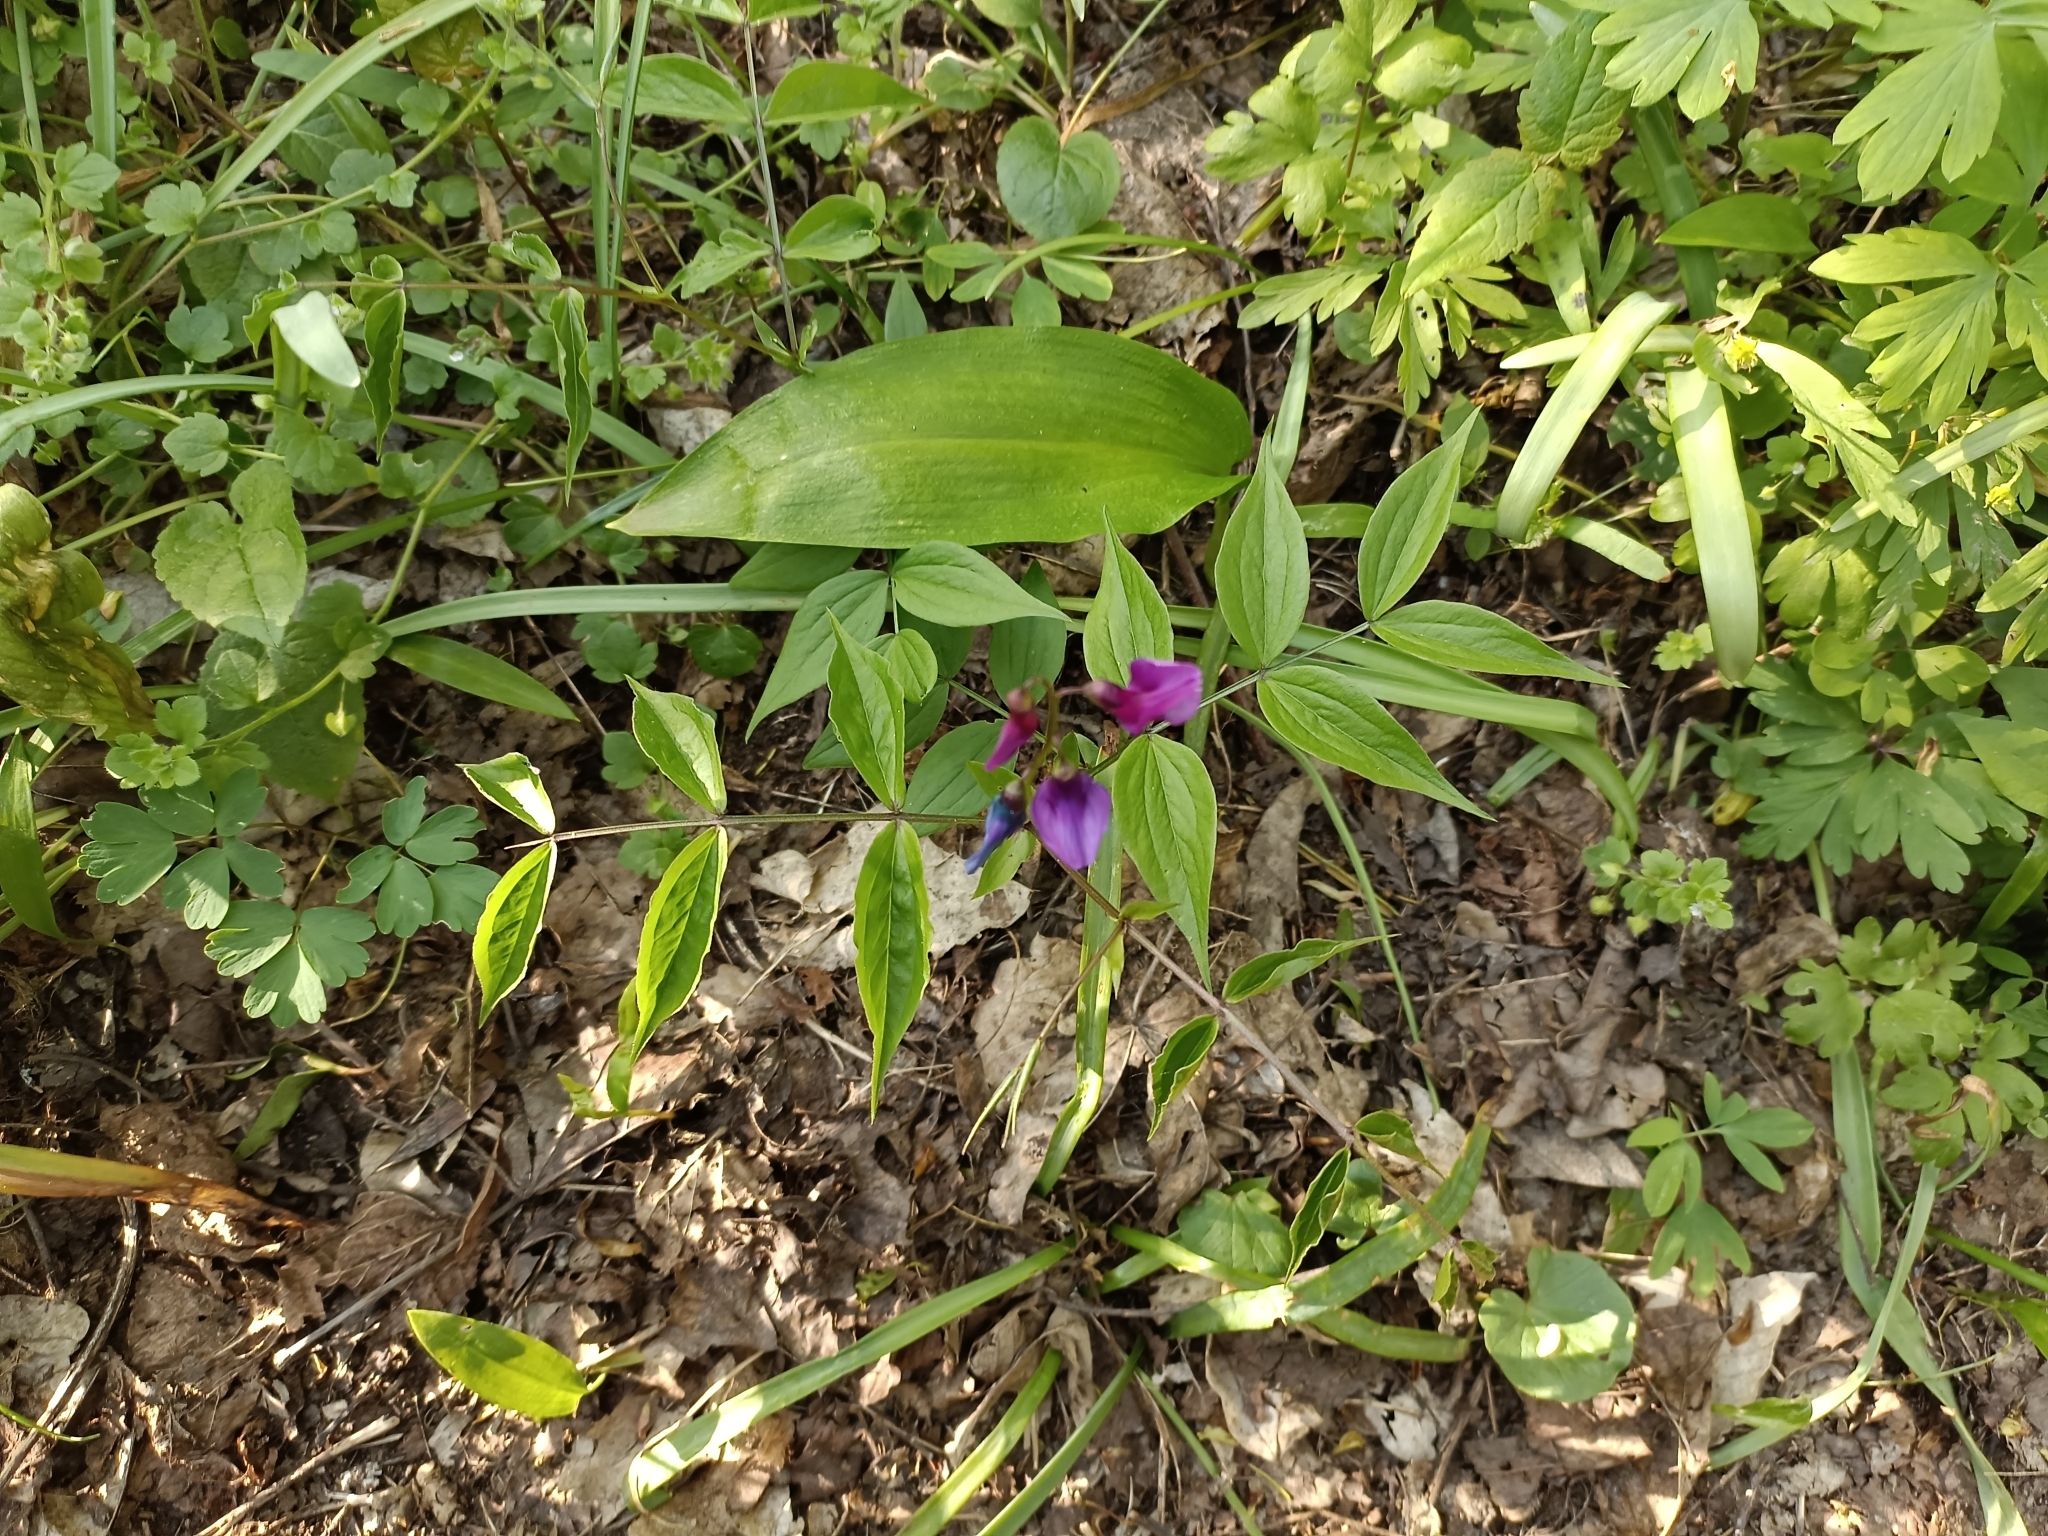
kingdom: Plantae
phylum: Tracheophyta
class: Magnoliopsida
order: Fabales
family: Fabaceae
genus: Lathyrus
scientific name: Lathyrus vernus
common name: Spring pea
